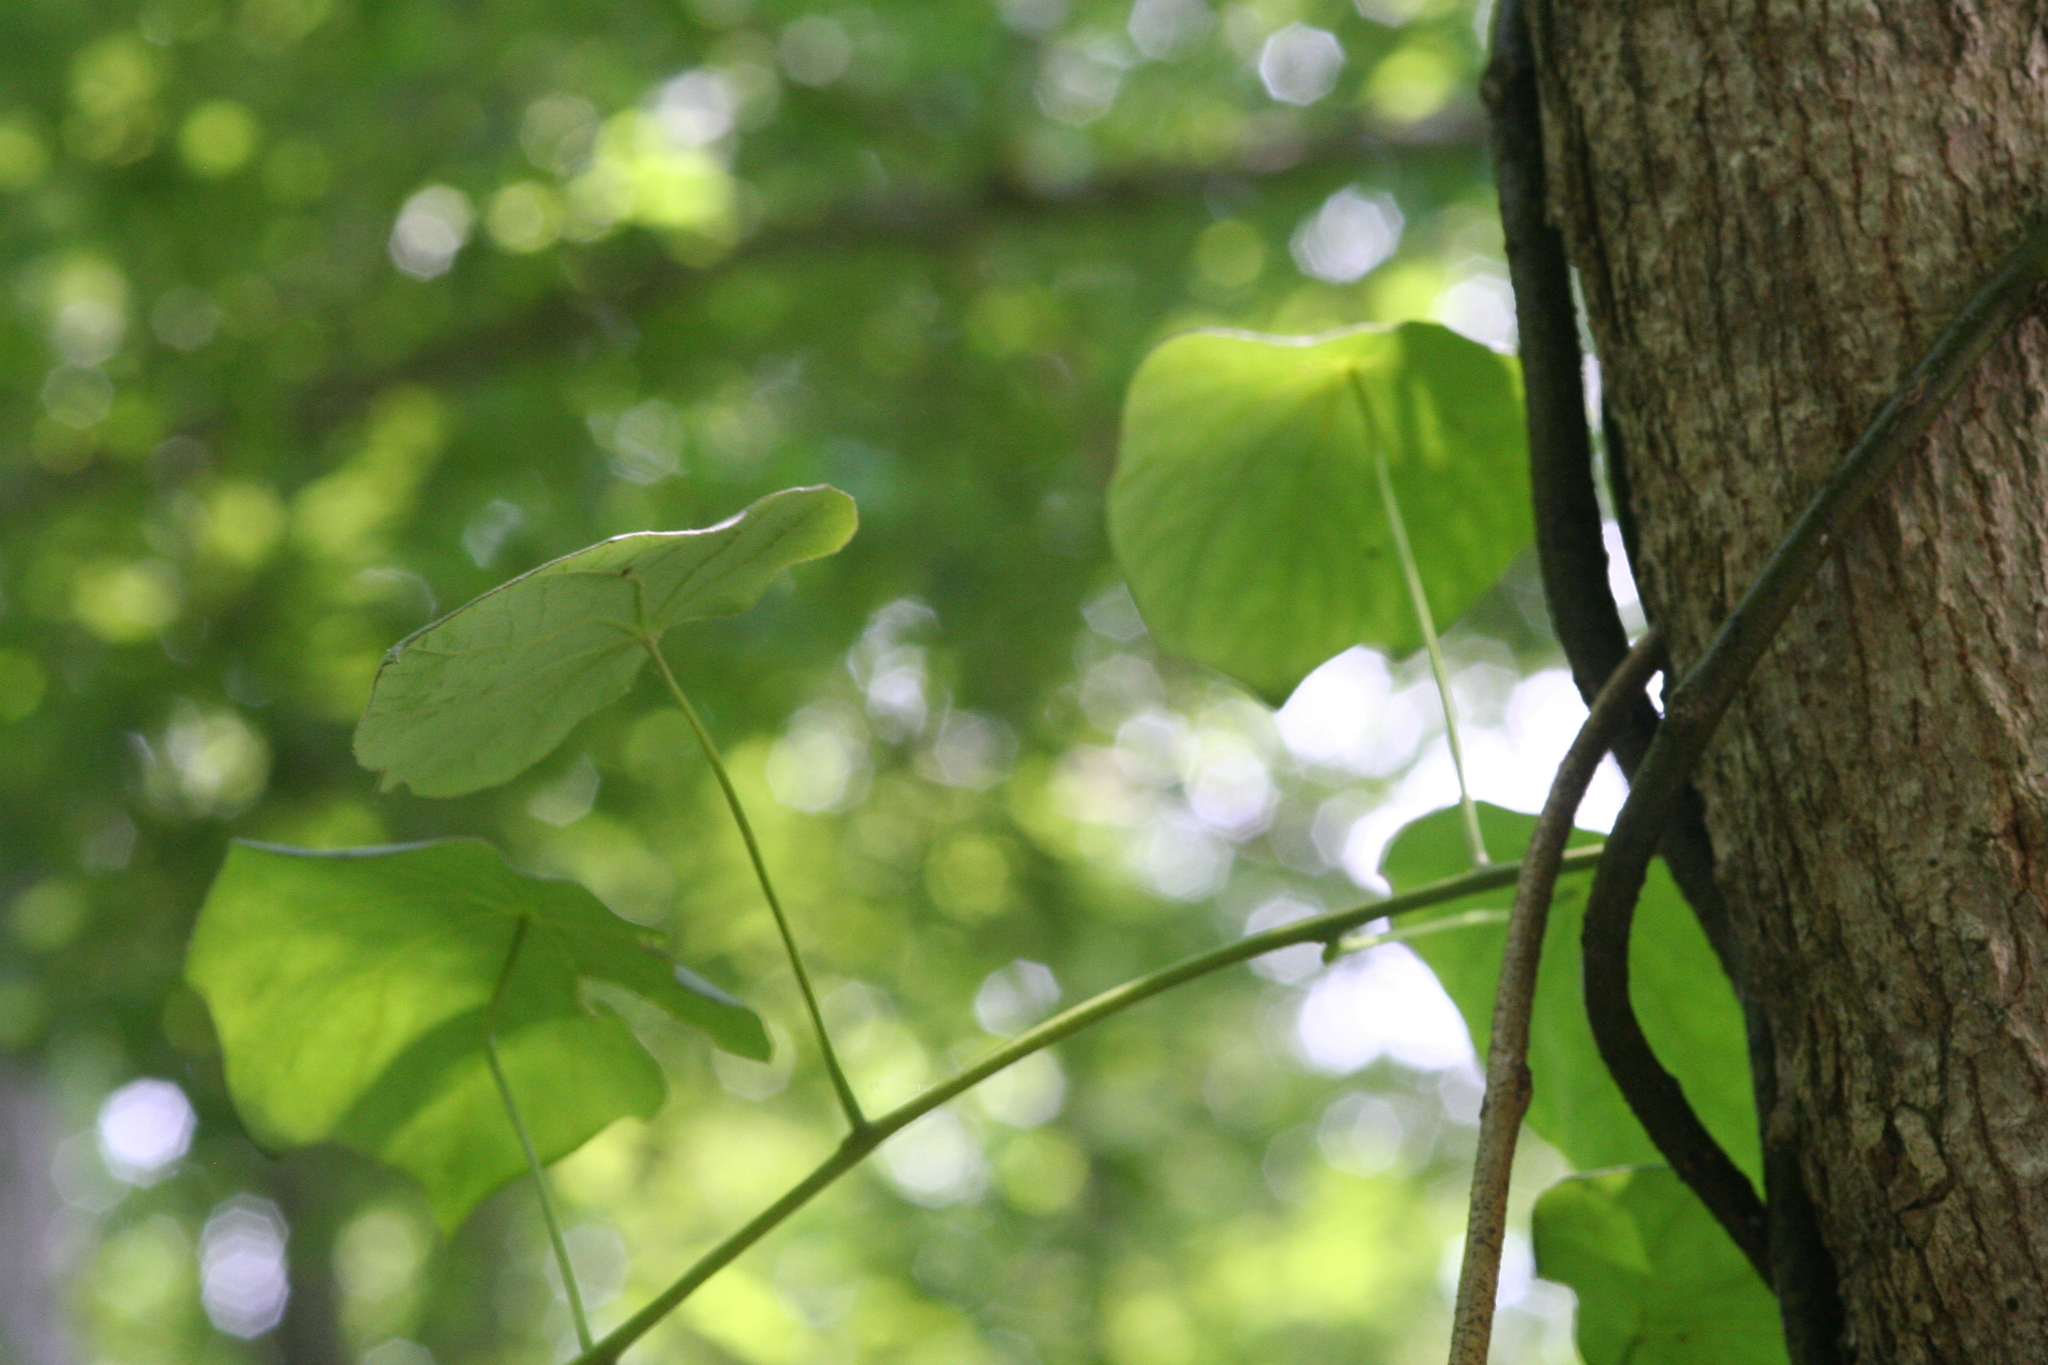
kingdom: Plantae
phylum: Tracheophyta
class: Magnoliopsida
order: Ranunculales
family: Menispermaceae
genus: Menispermum
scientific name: Menispermum canadense
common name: Moonseed
